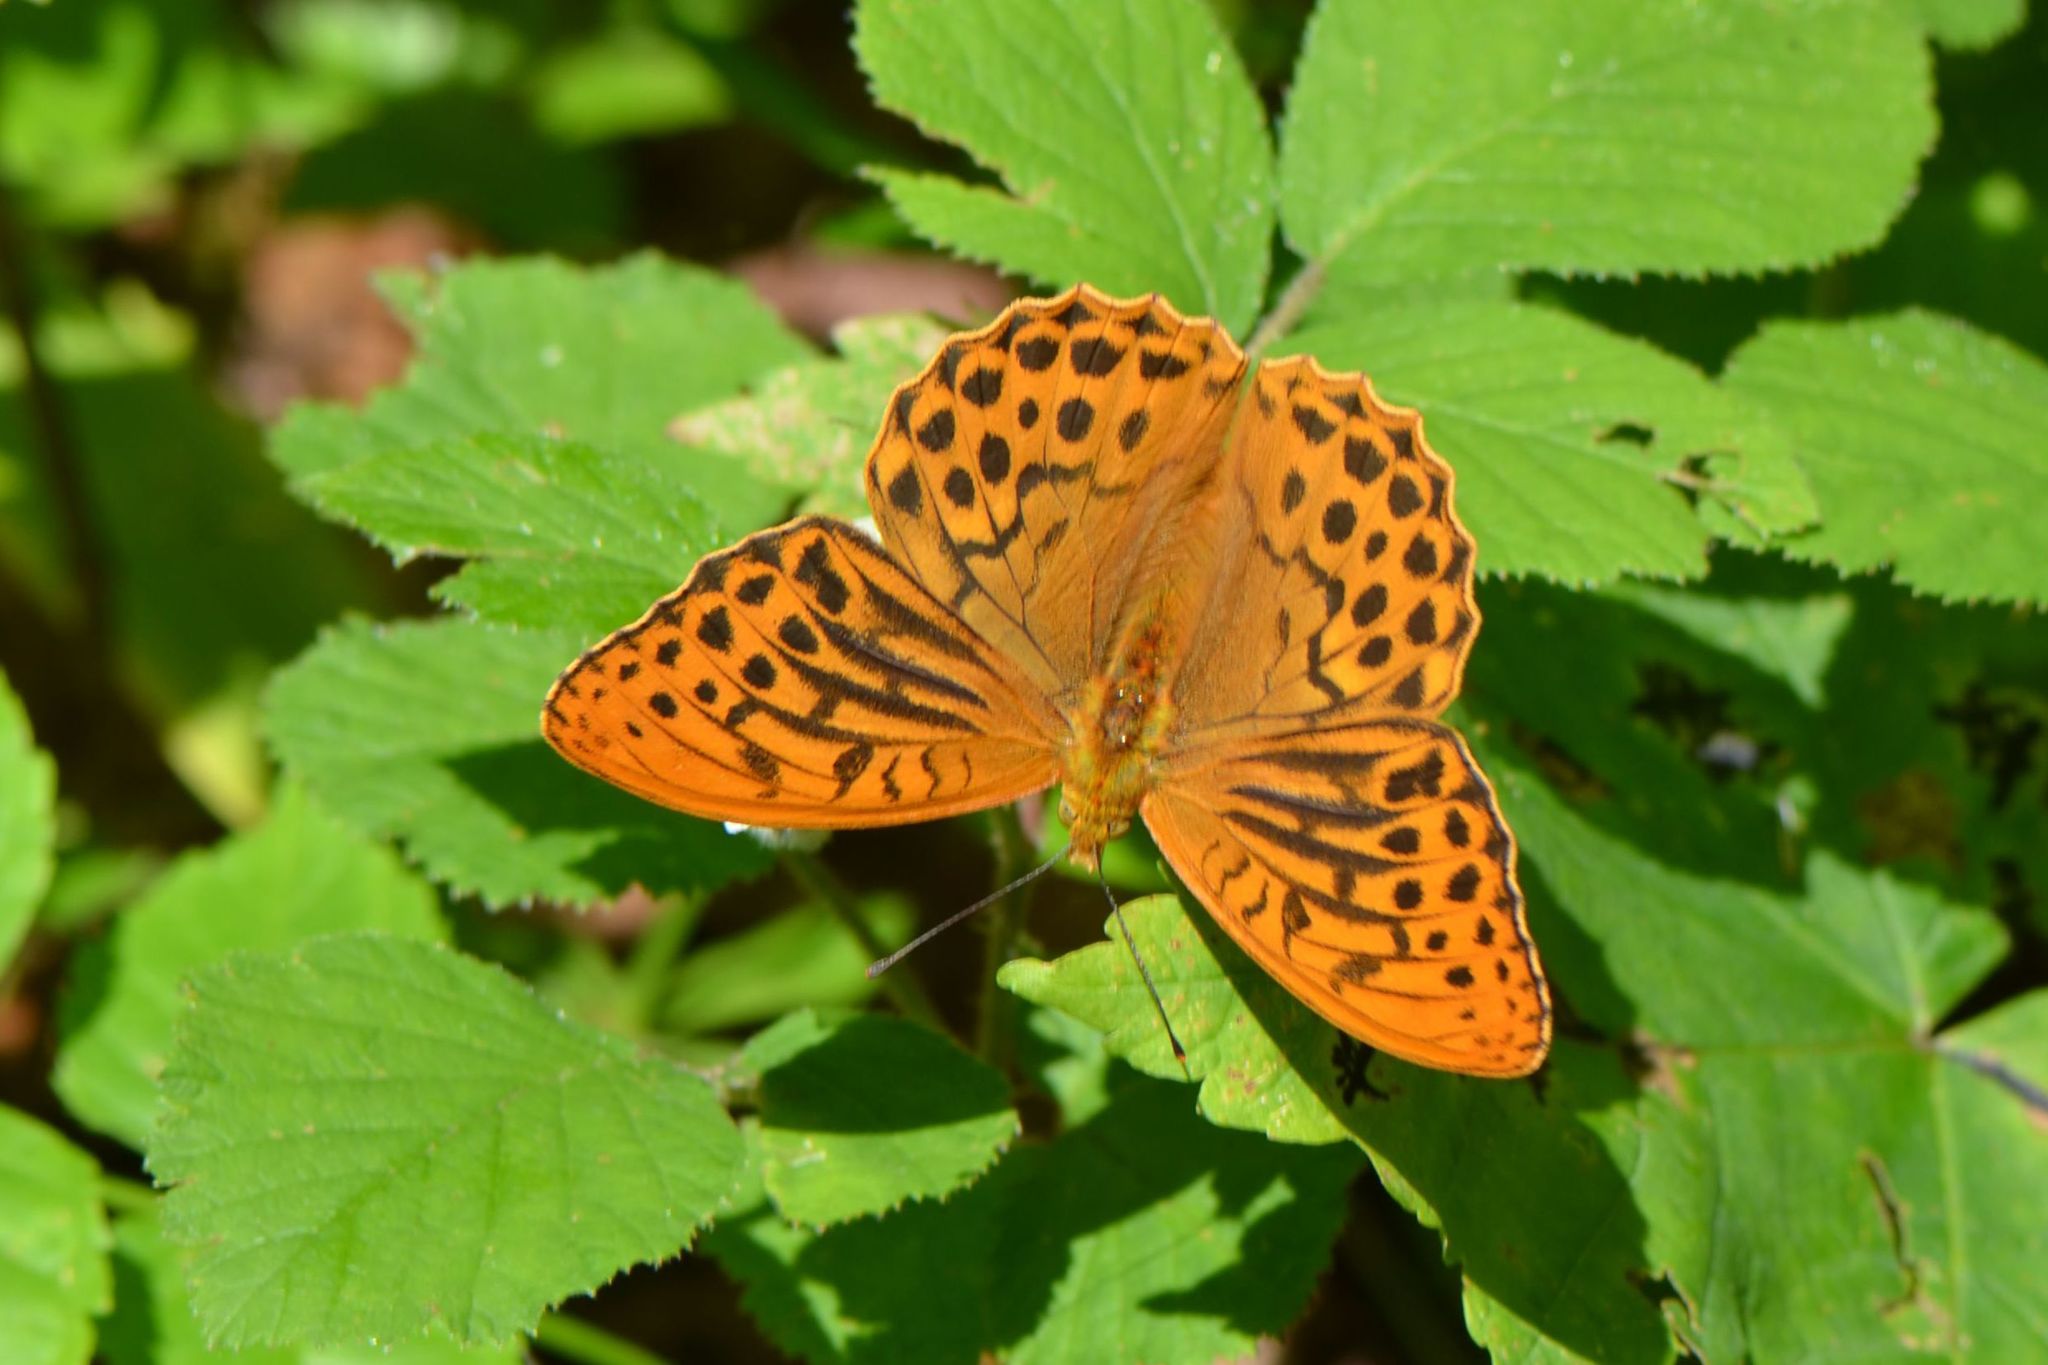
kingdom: Animalia
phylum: Arthropoda
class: Insecta
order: Lepidoptera
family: Nymphalidae
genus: Argynnis
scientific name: Argynnis paphia
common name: Silver-washed fritillary
